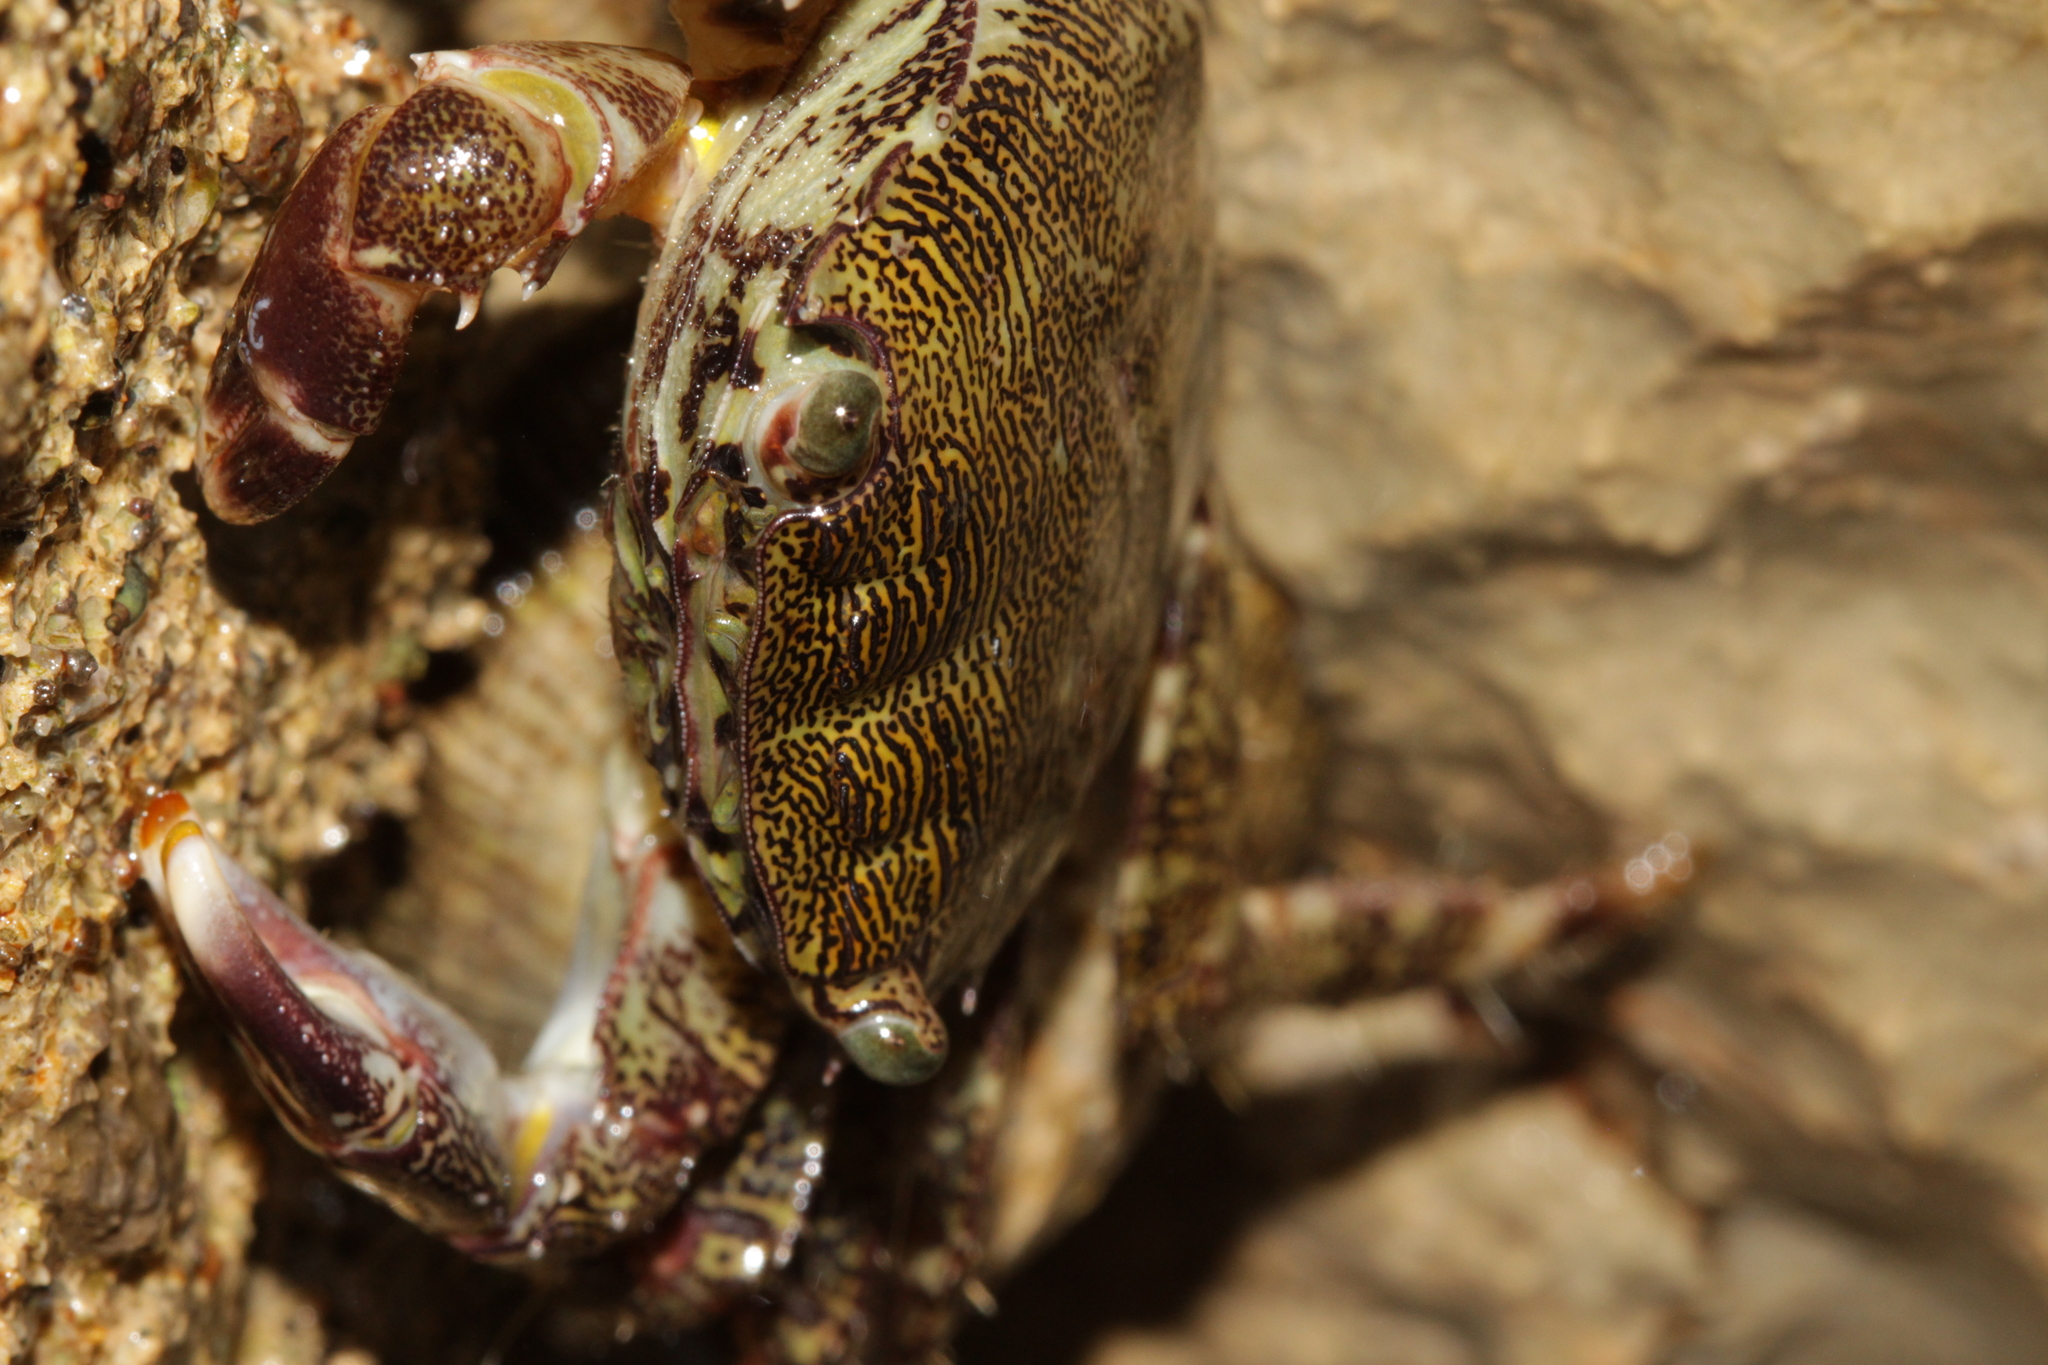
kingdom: Animalia
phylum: Arthropoda
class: Malacostraca
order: Decapoda
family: Grapsidae
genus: Pachygrapsus
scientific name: Pachygrapsus marmoratus
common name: Marbled rock crab
